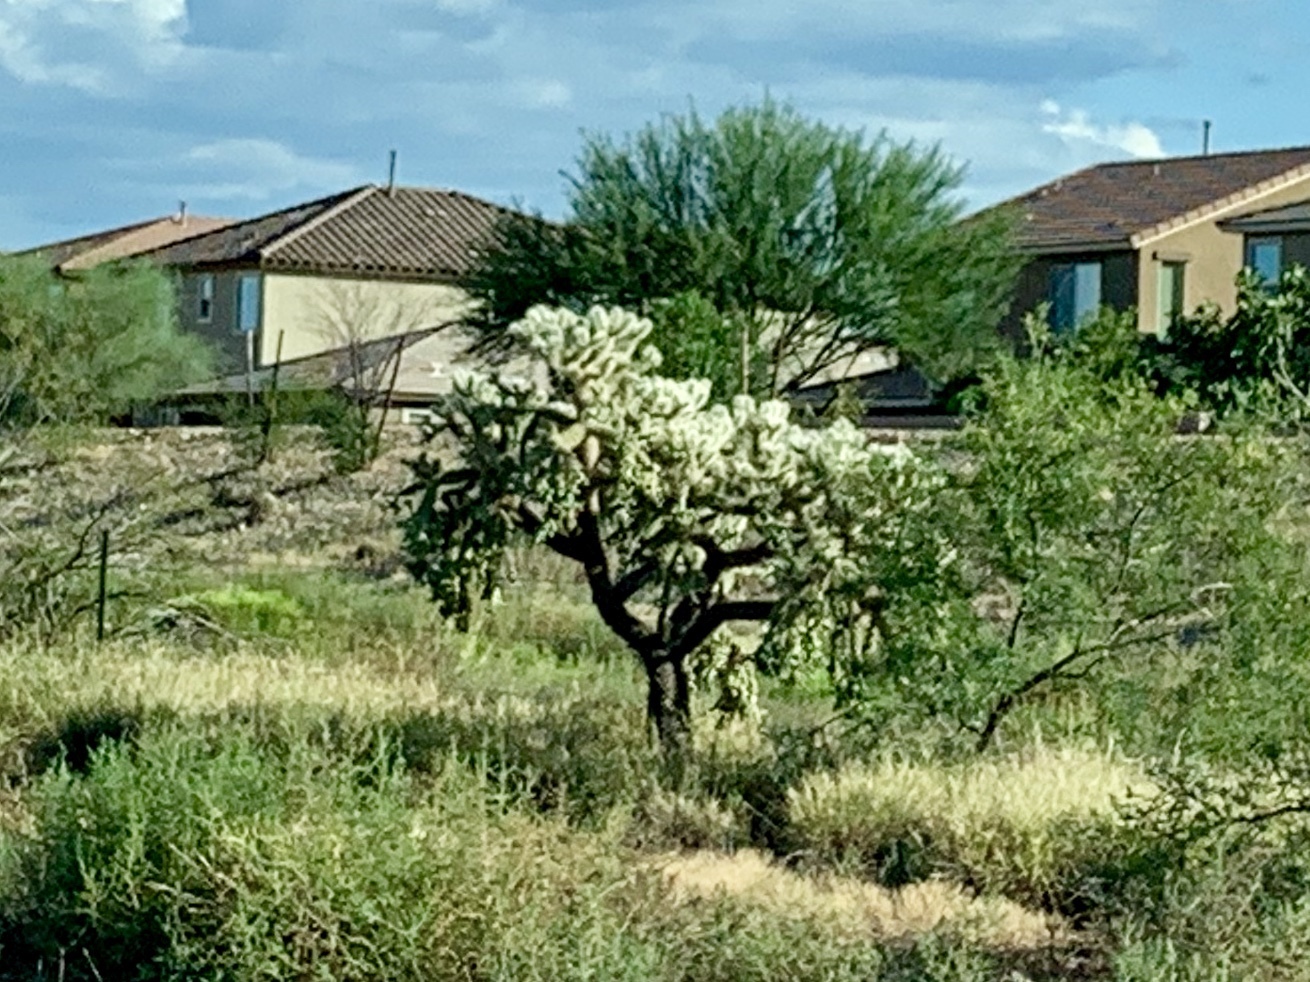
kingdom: Plantae
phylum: Tracheophyta
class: Magnoliopsida
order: Caryophyllales
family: Cactaceae
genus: Cylindropuntia
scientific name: Cylindropuntia fulgida
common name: Jumping cholla
